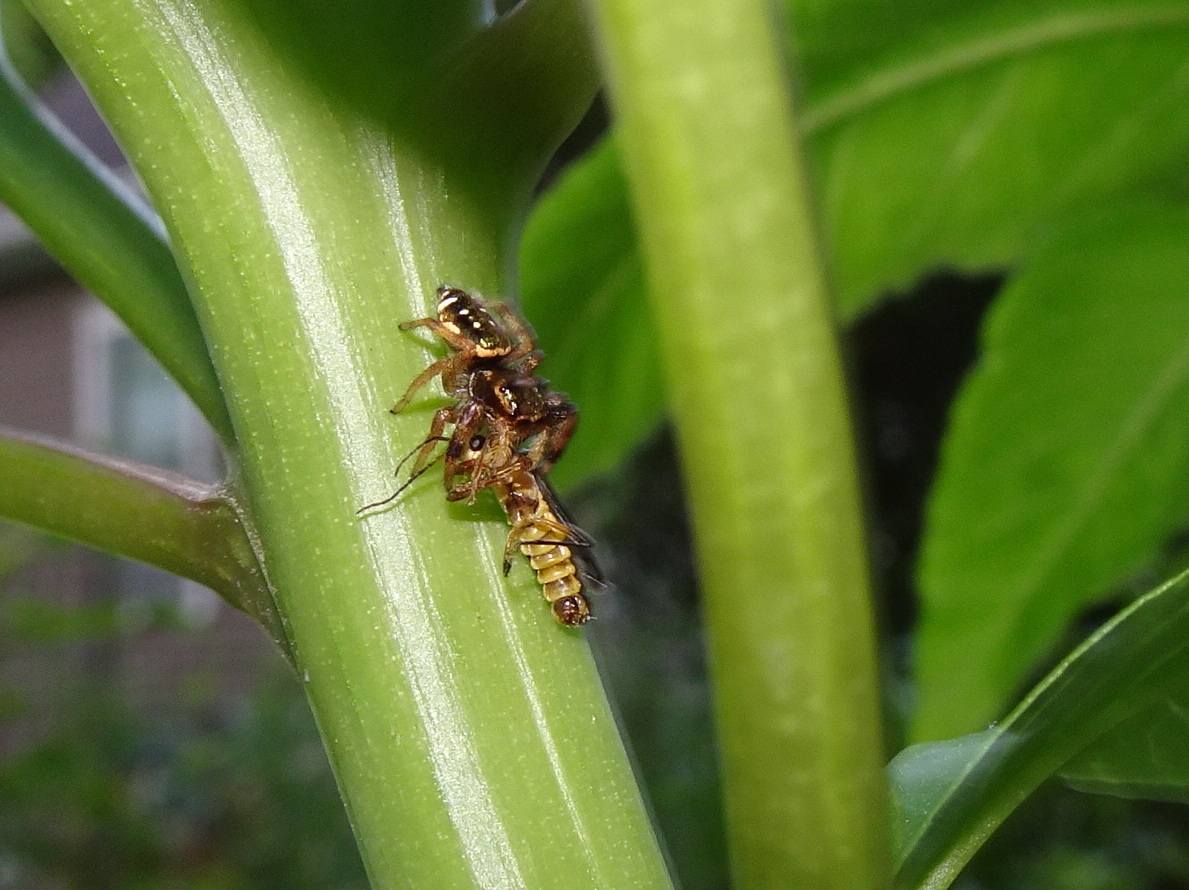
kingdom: Animalia
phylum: Arthropoda
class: Arachnida
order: Araneae
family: Salticidae
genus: Paraphidippus
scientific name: Paraphidippus aurantius
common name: Jumping spiders
